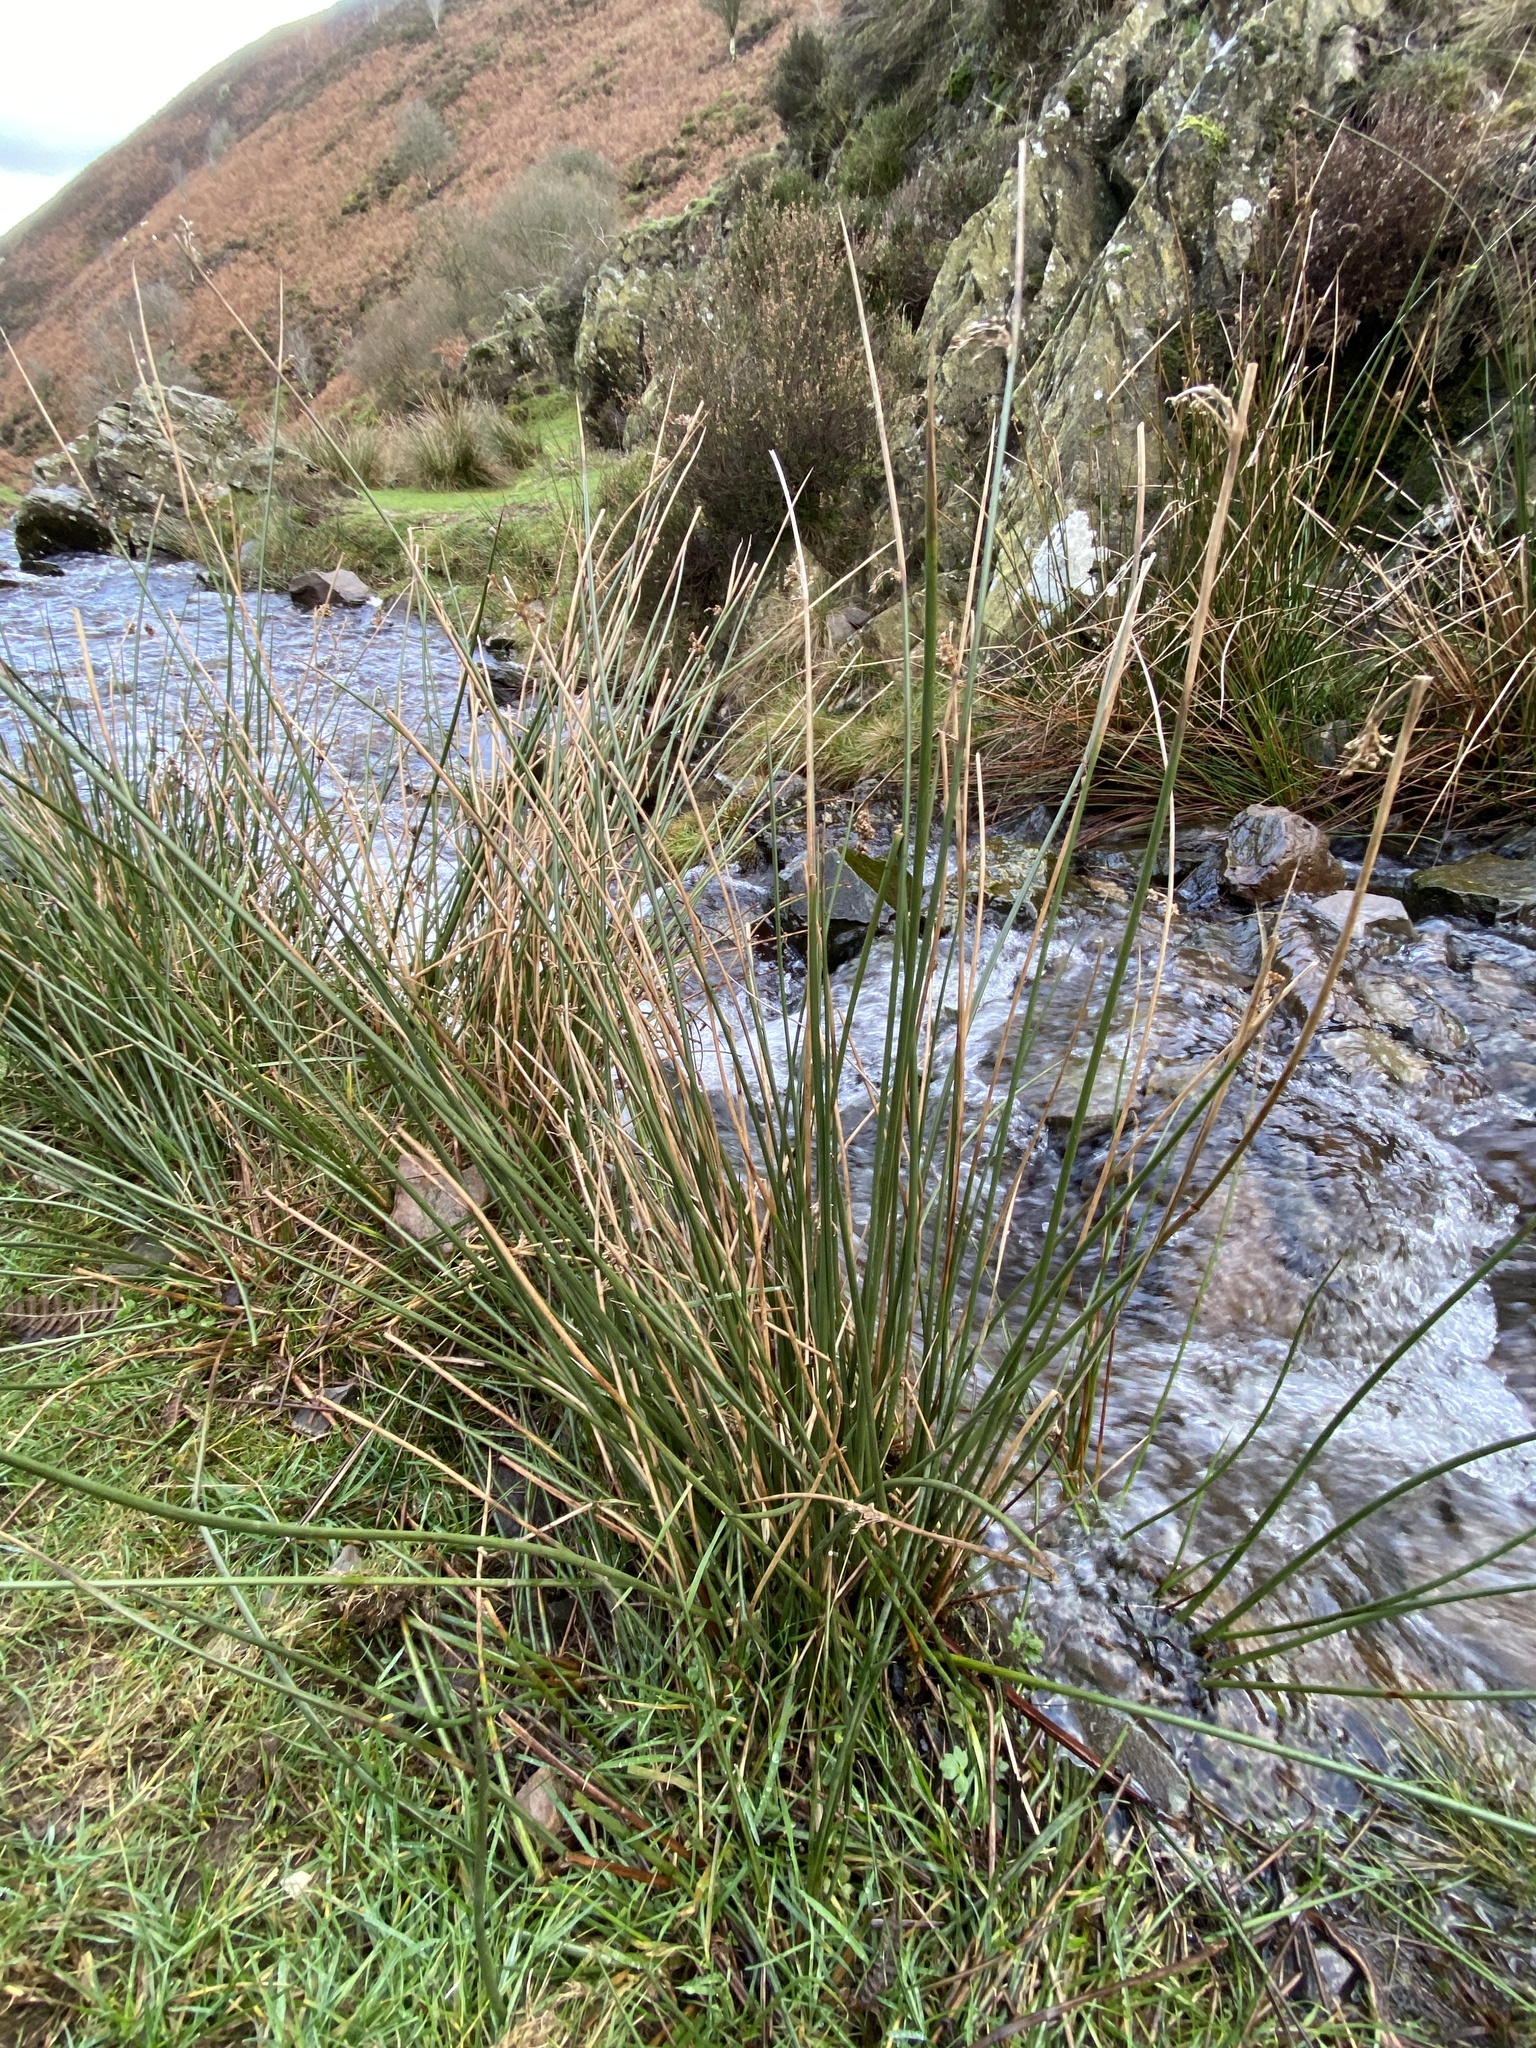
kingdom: Plantae
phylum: Tracheophyta
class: Liliopsida
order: Poales
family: Juncaceae
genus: Juncus
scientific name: Juncus effusus
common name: Soft rush
